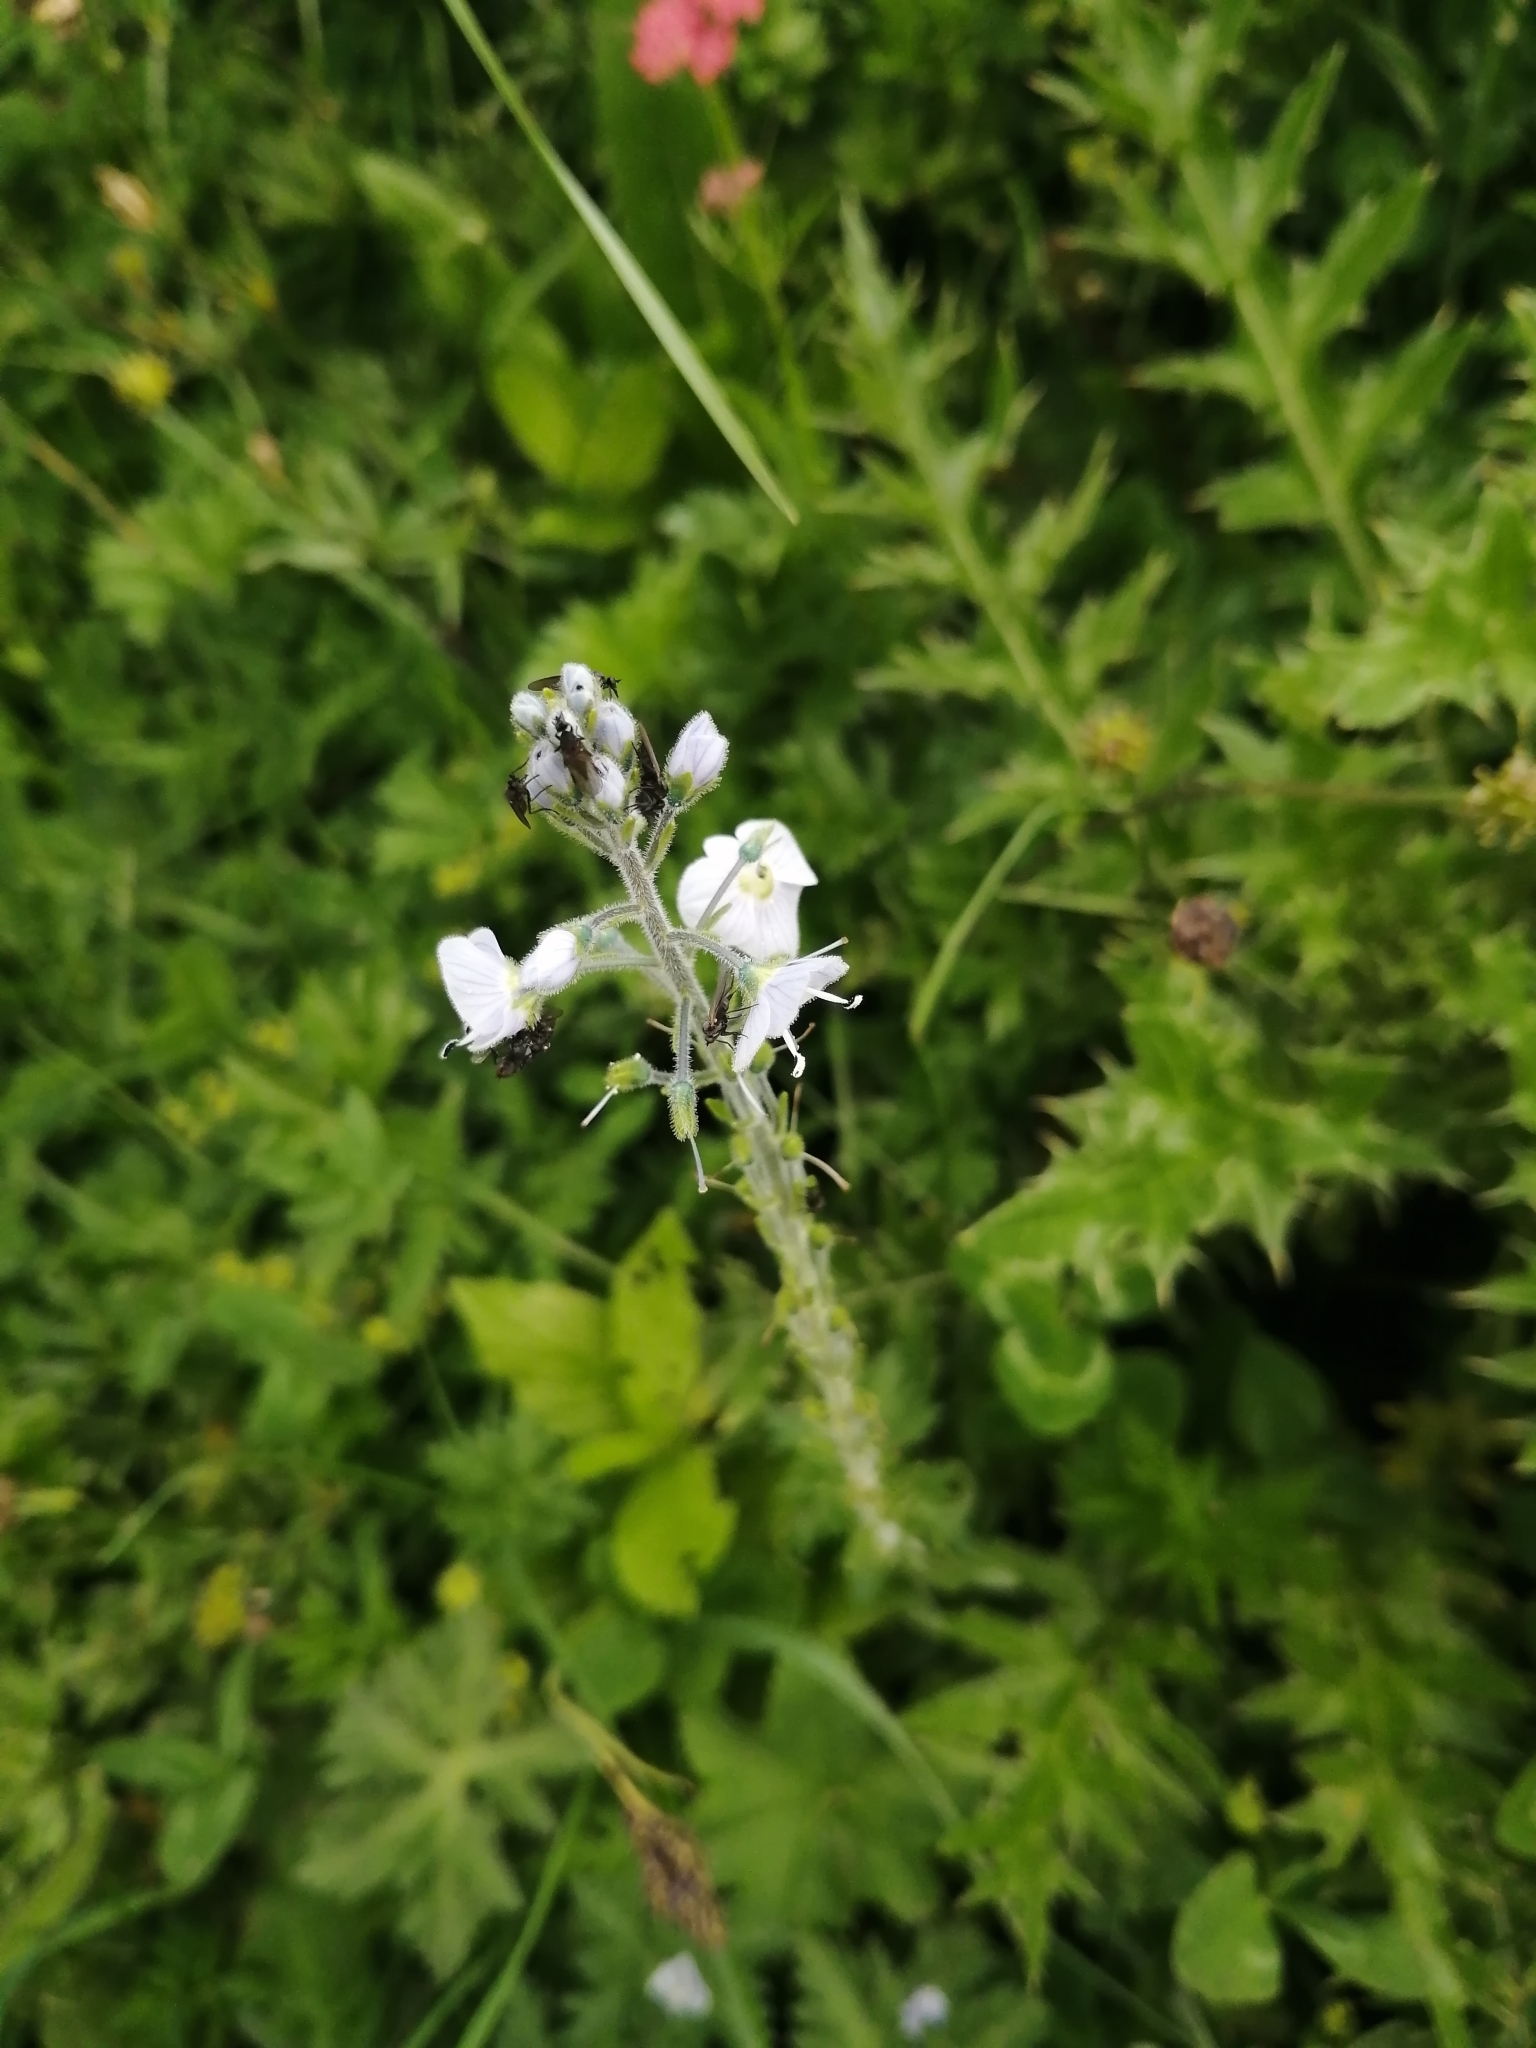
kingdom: Plantae
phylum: Tracheophyta
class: Magnoliopsida
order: Lamiales
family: Plantaginaceae
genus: Veronica
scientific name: Veronica gentianoides
